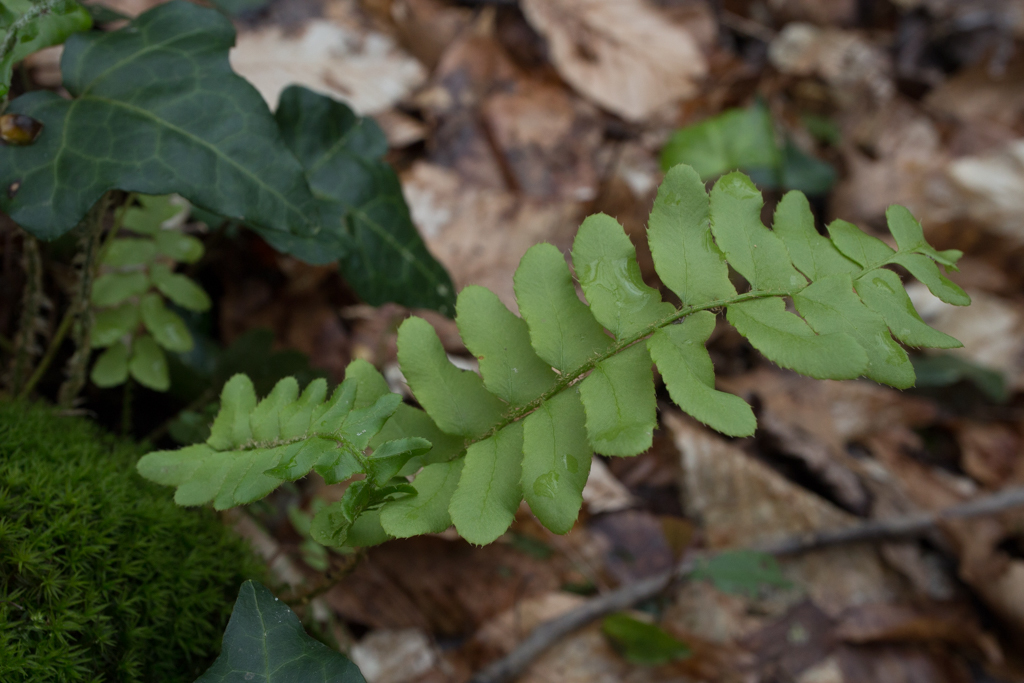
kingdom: Plantae
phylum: Tracheophyta
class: Polypodiopsida
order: Polypodiales
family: Dryopteridaceae
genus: Polystichum
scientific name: Polystichum acrostichoides
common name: Christmas fern
